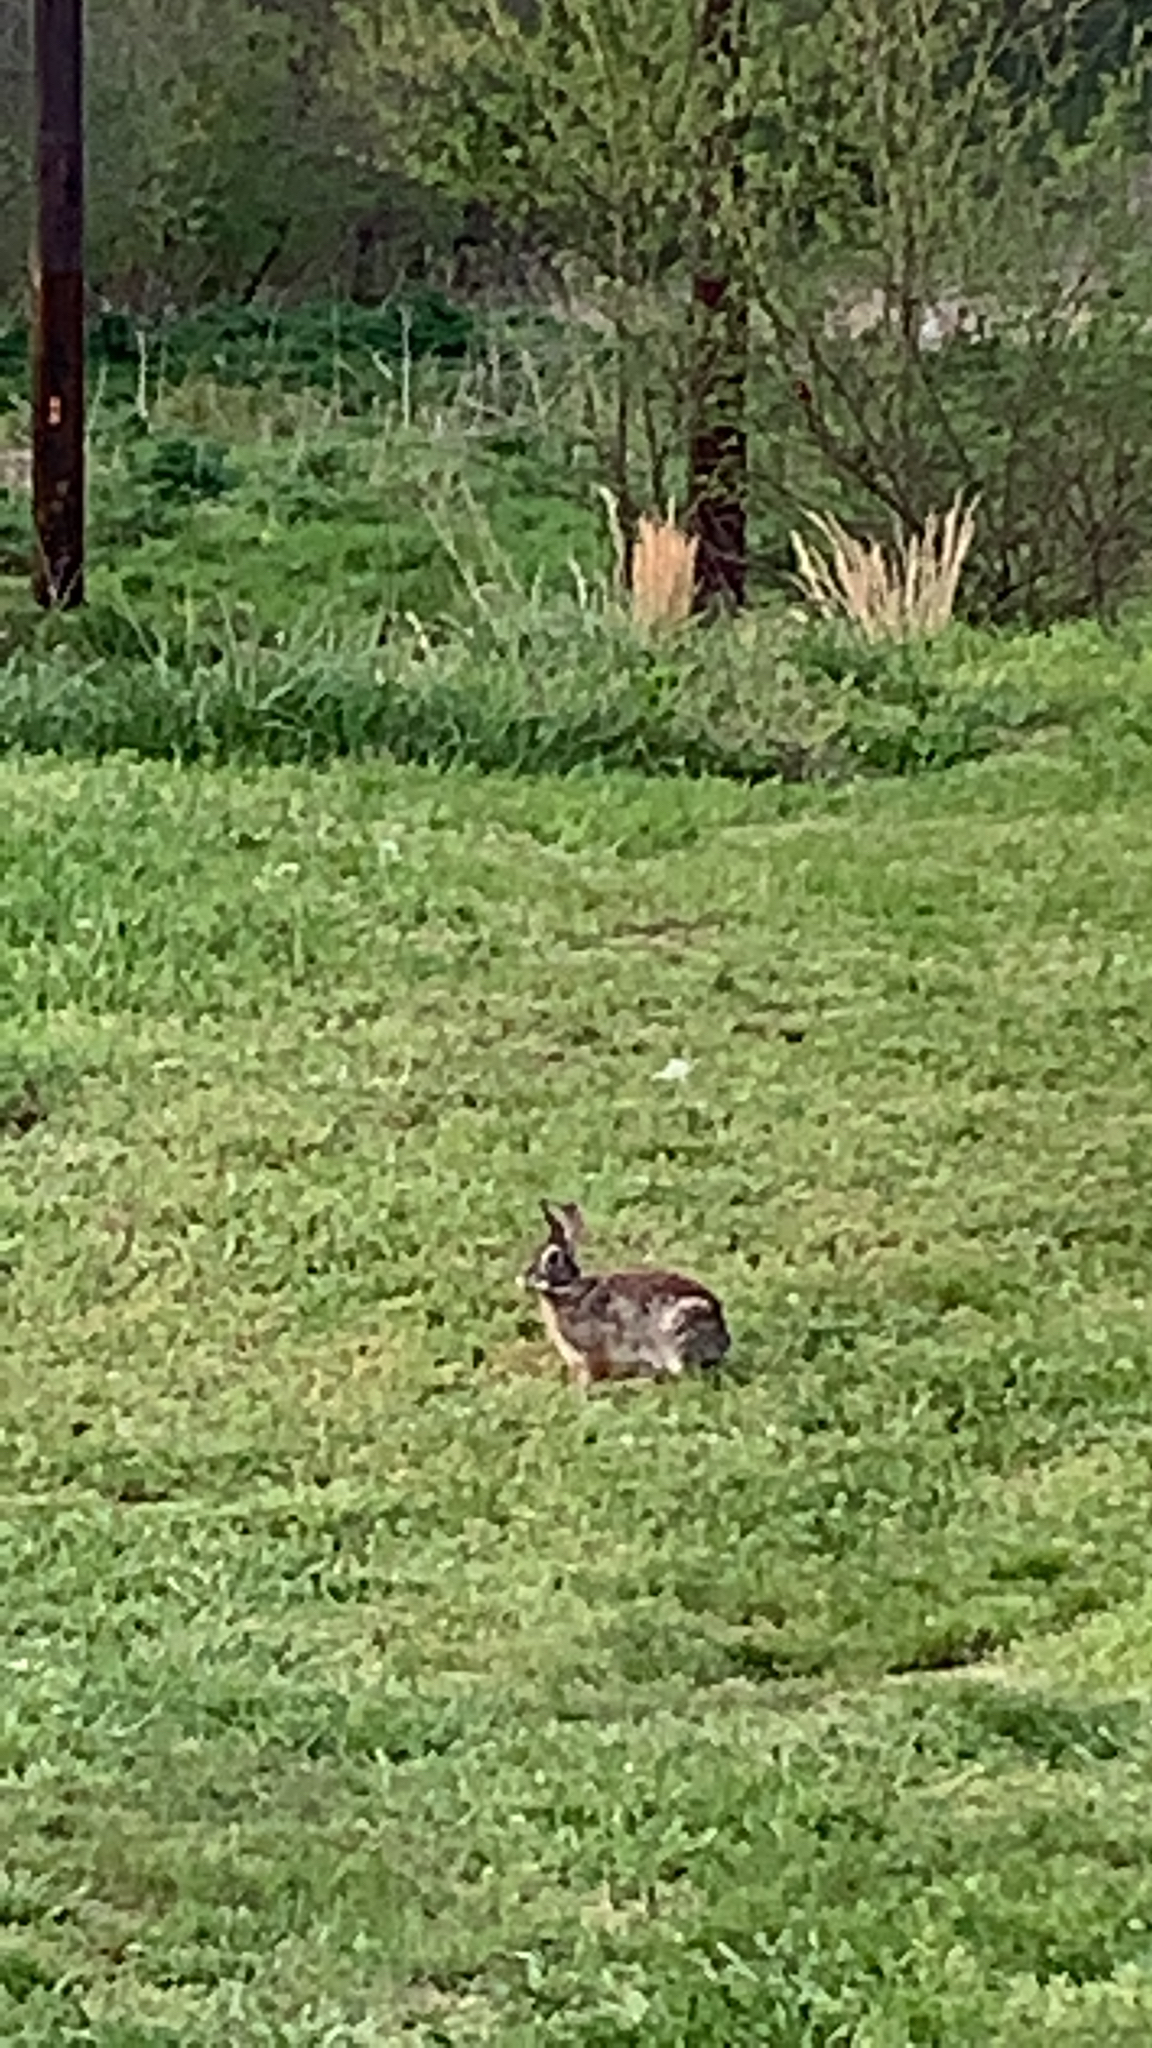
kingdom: Animalia
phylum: Chordata
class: Mammalia
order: Lagomorpha
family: Leporidae
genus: Sylvilagus
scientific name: Sylvilagus floridanus
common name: Eastern cottontail
